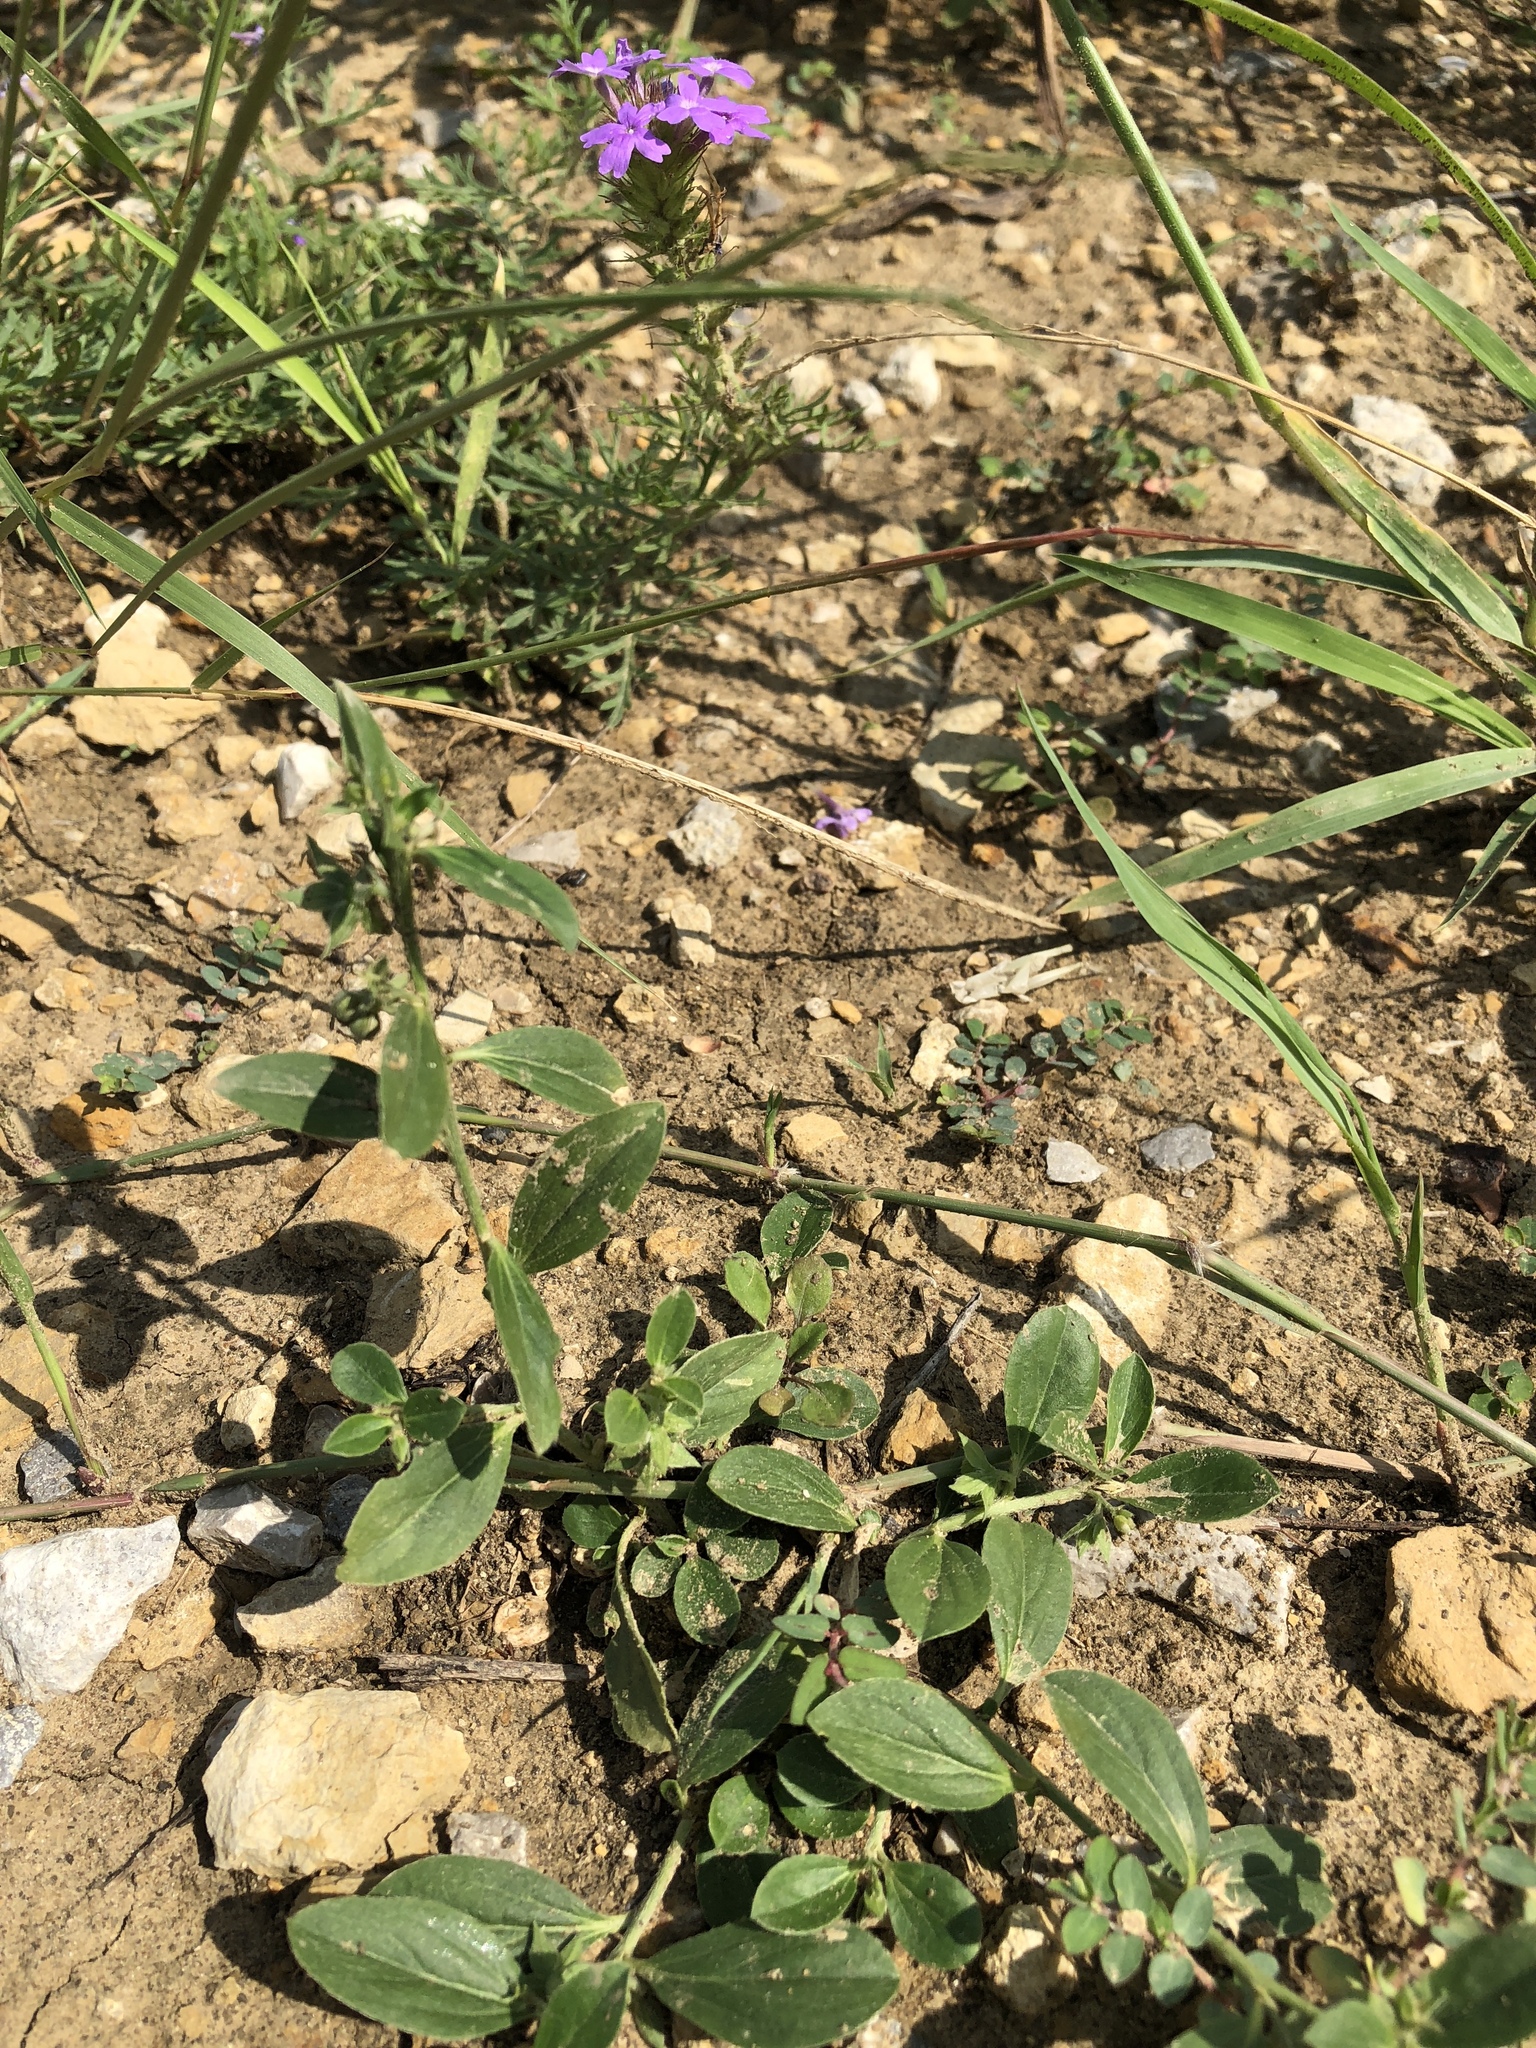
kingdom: Plantae
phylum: Tracheophyta
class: Magnoliopsida
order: Malpighiales
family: Euphorbiaceae
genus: Ditaxis
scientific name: Ditaxis humilis
